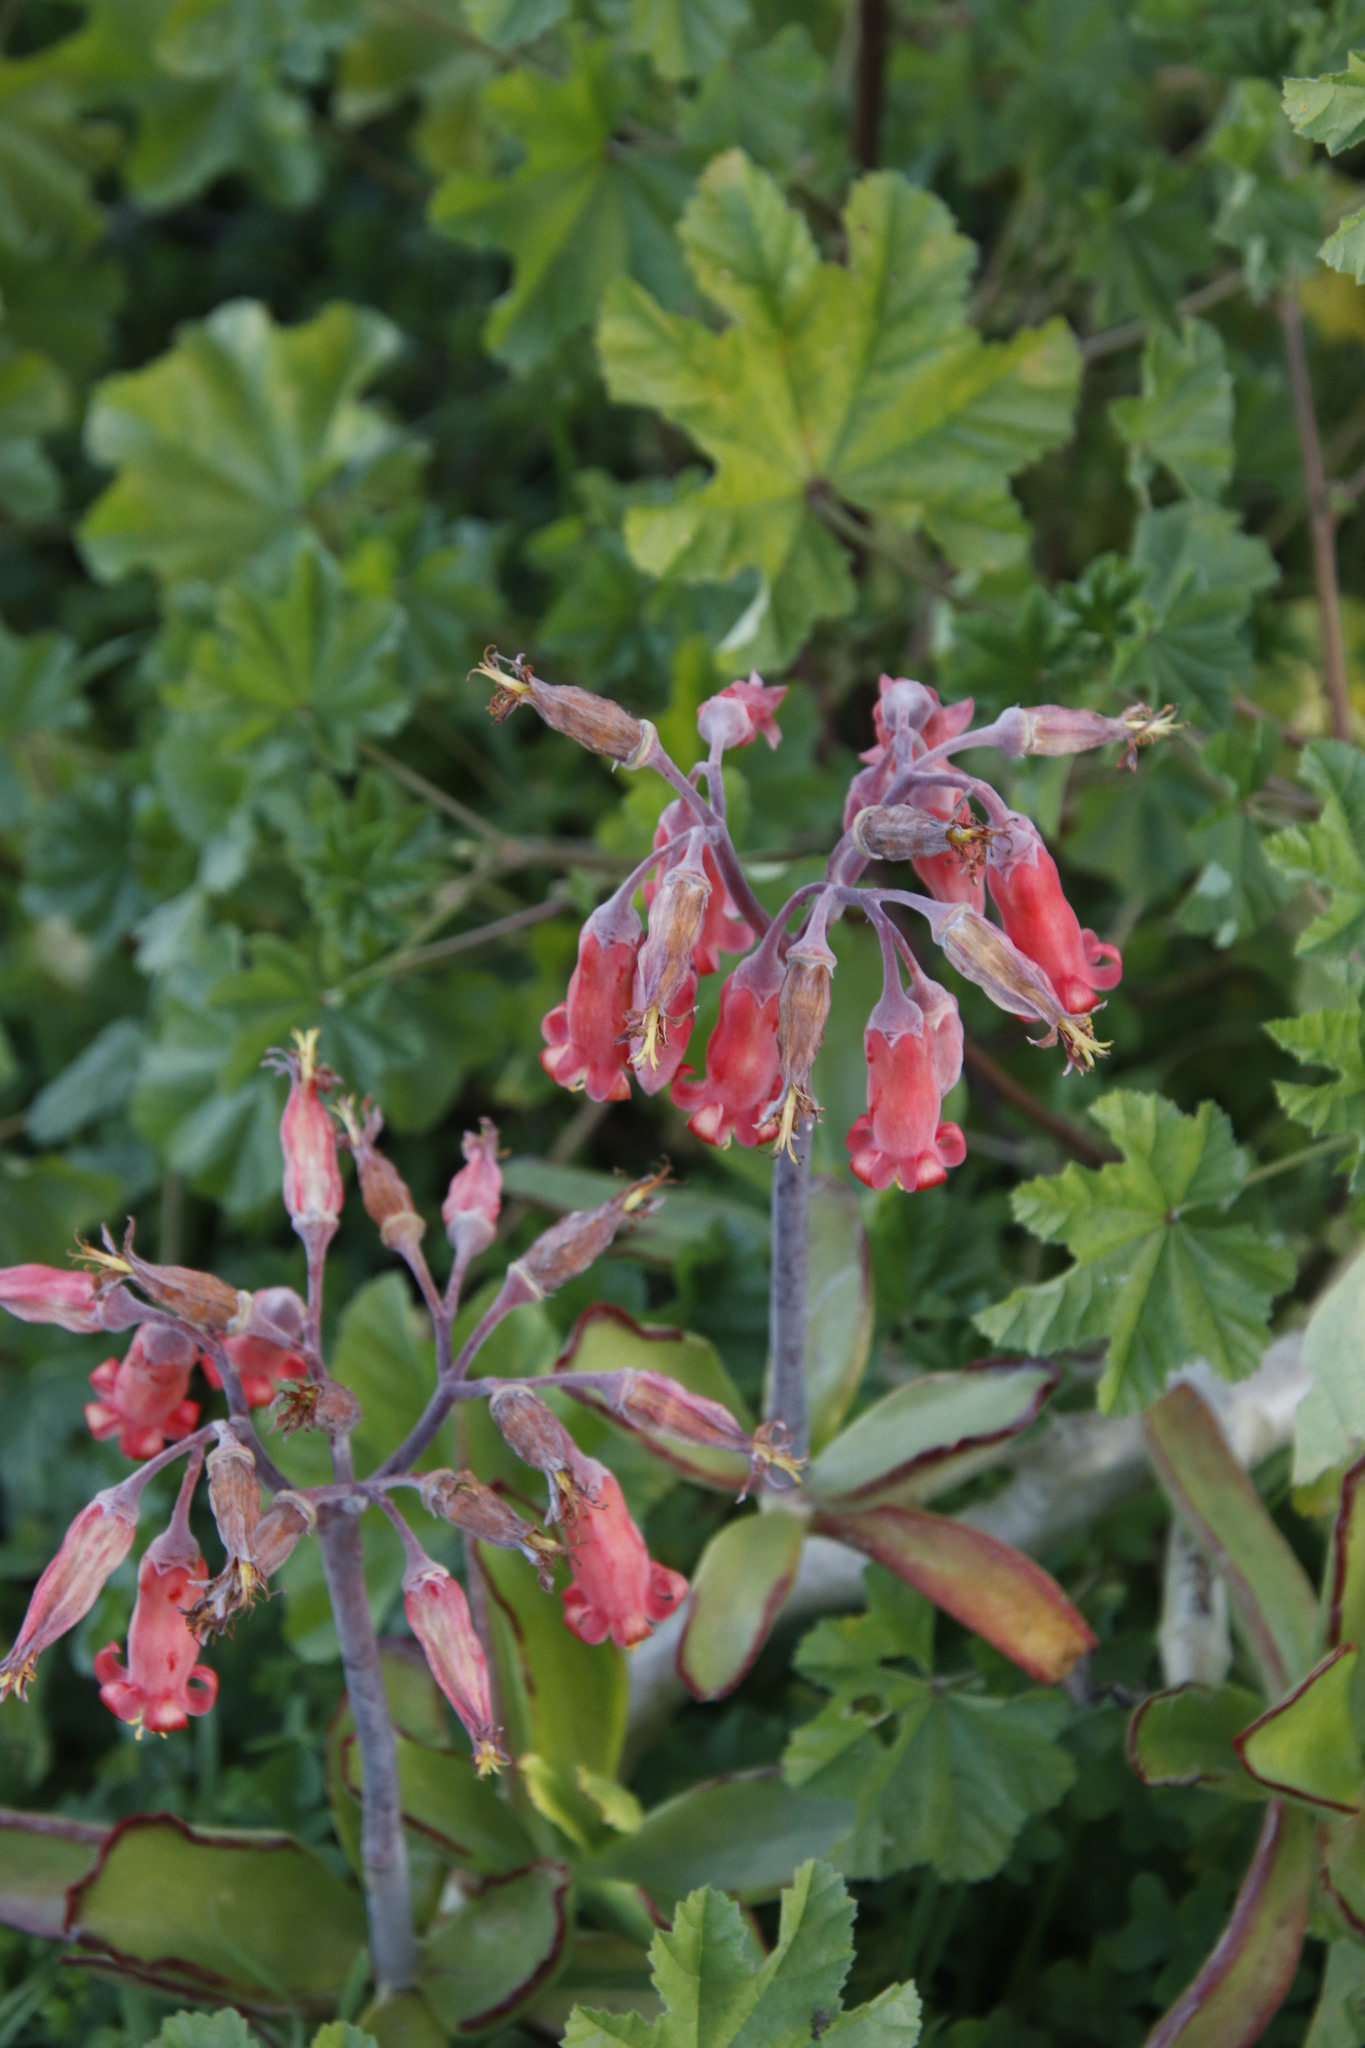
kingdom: Plantae
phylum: Tracheophyta
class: Magnoliopsida
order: Saxifragales
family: Crassulaceae
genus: Cotyledon
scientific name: Cotyledon orbiculata
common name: Pig's ear
